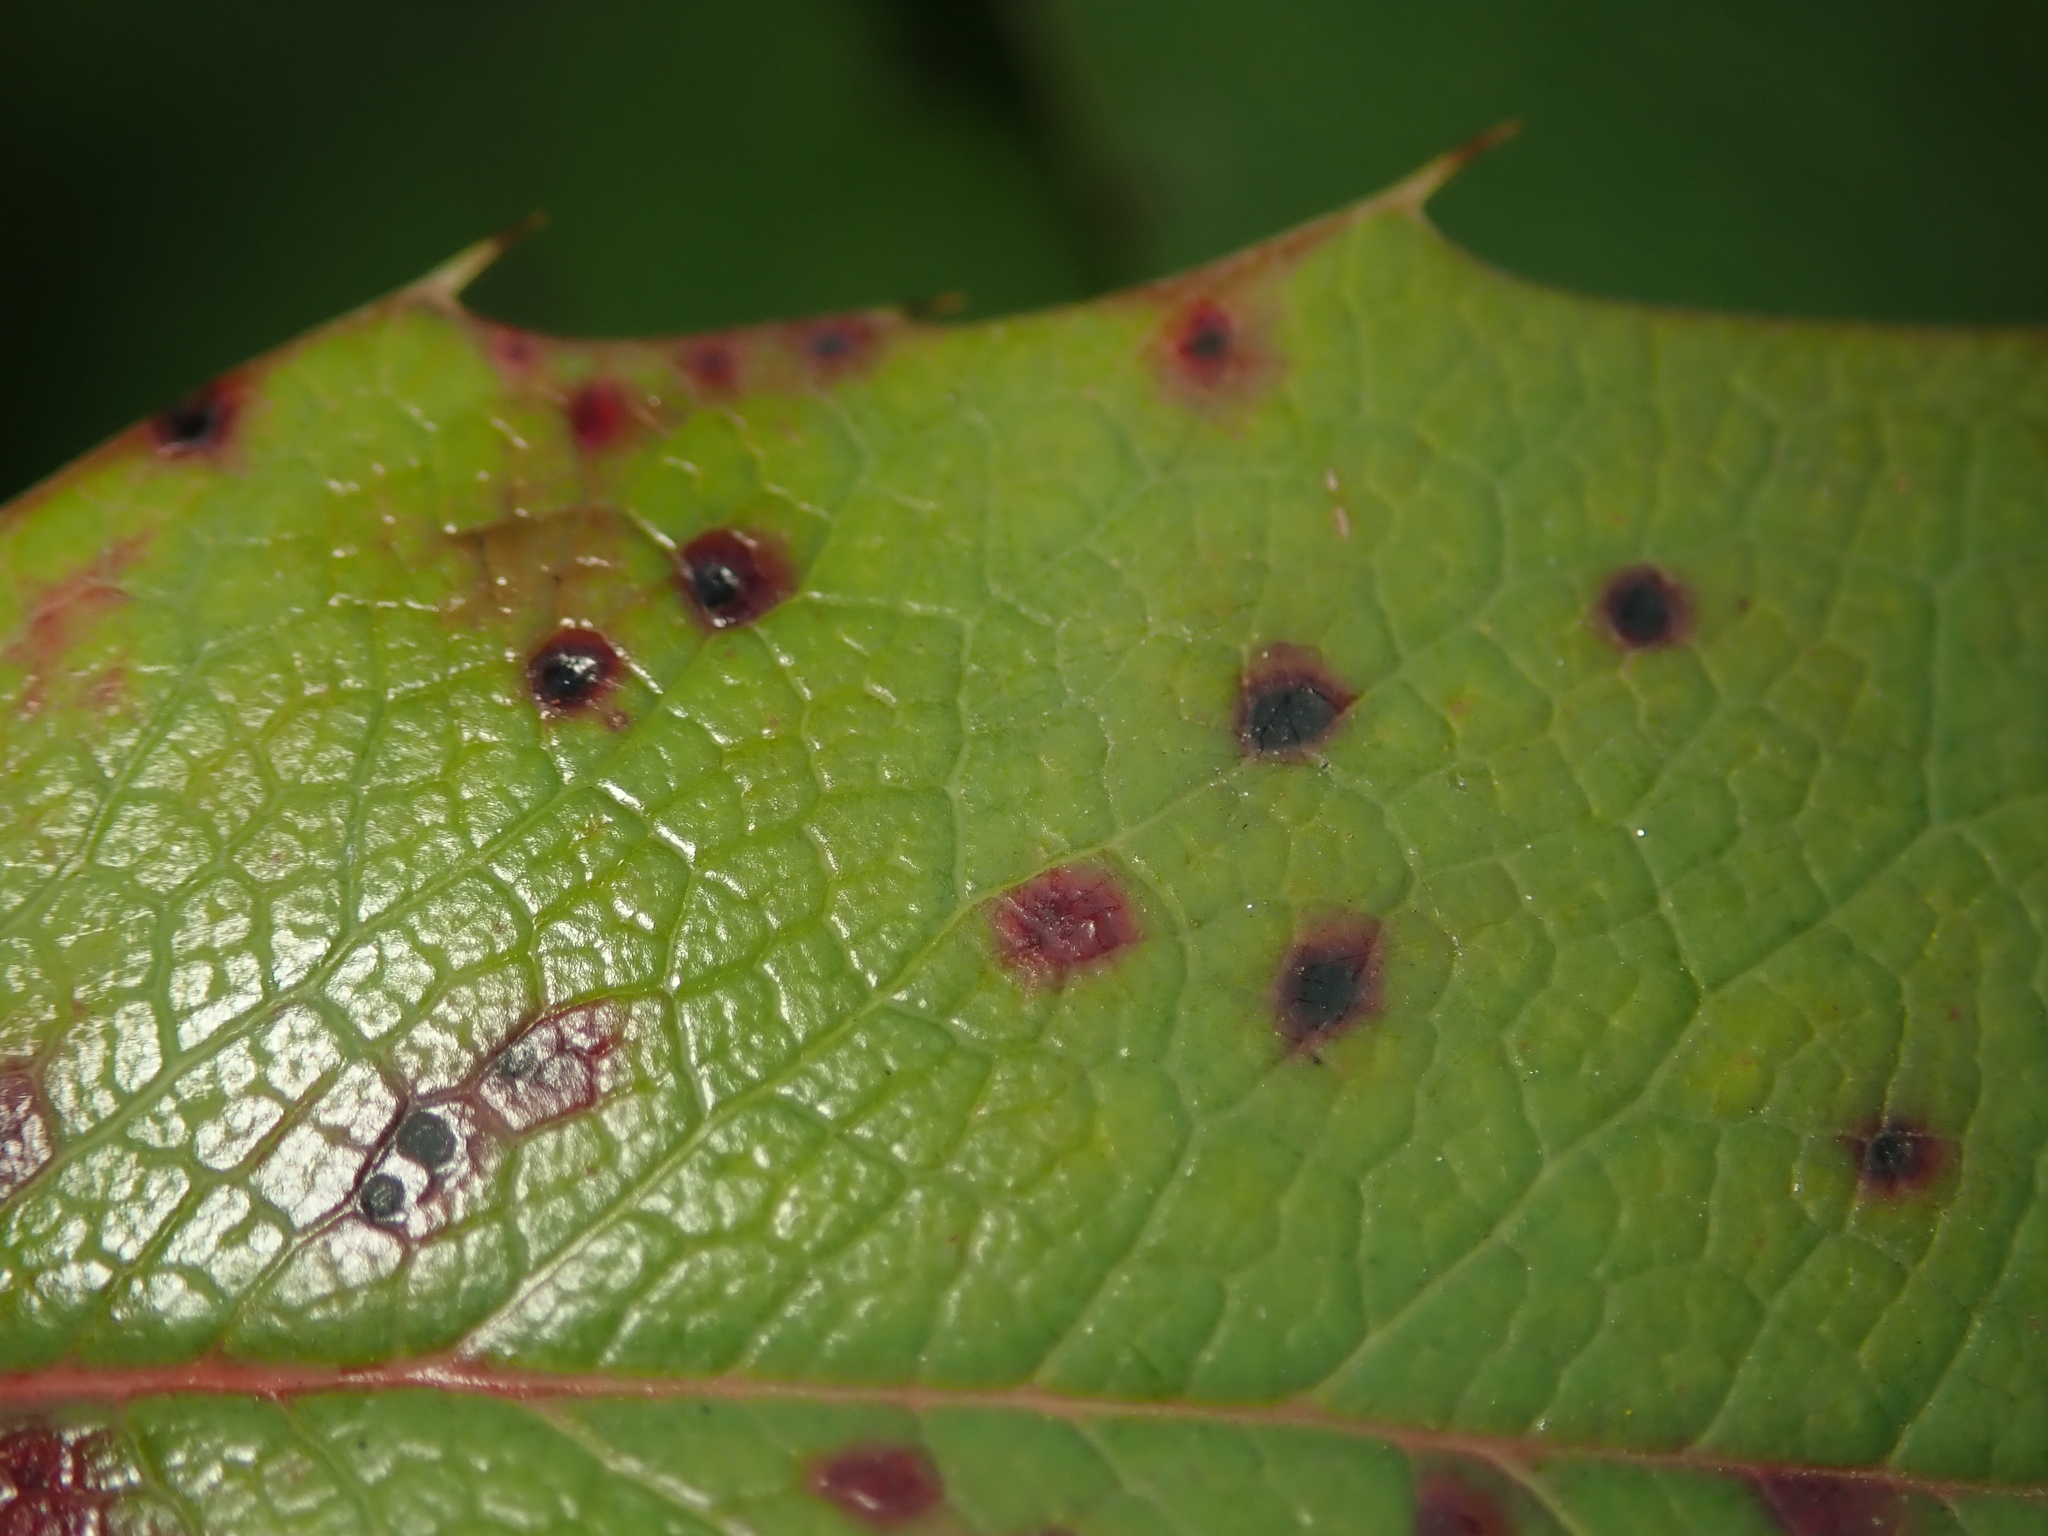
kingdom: Fungi
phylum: Basidiomycota
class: Pucciniomycetes
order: Pucciniales
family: Pucciniaceae
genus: Cumminsiella
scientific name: Cumminsiella mirabilissima
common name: Mahonia rust
